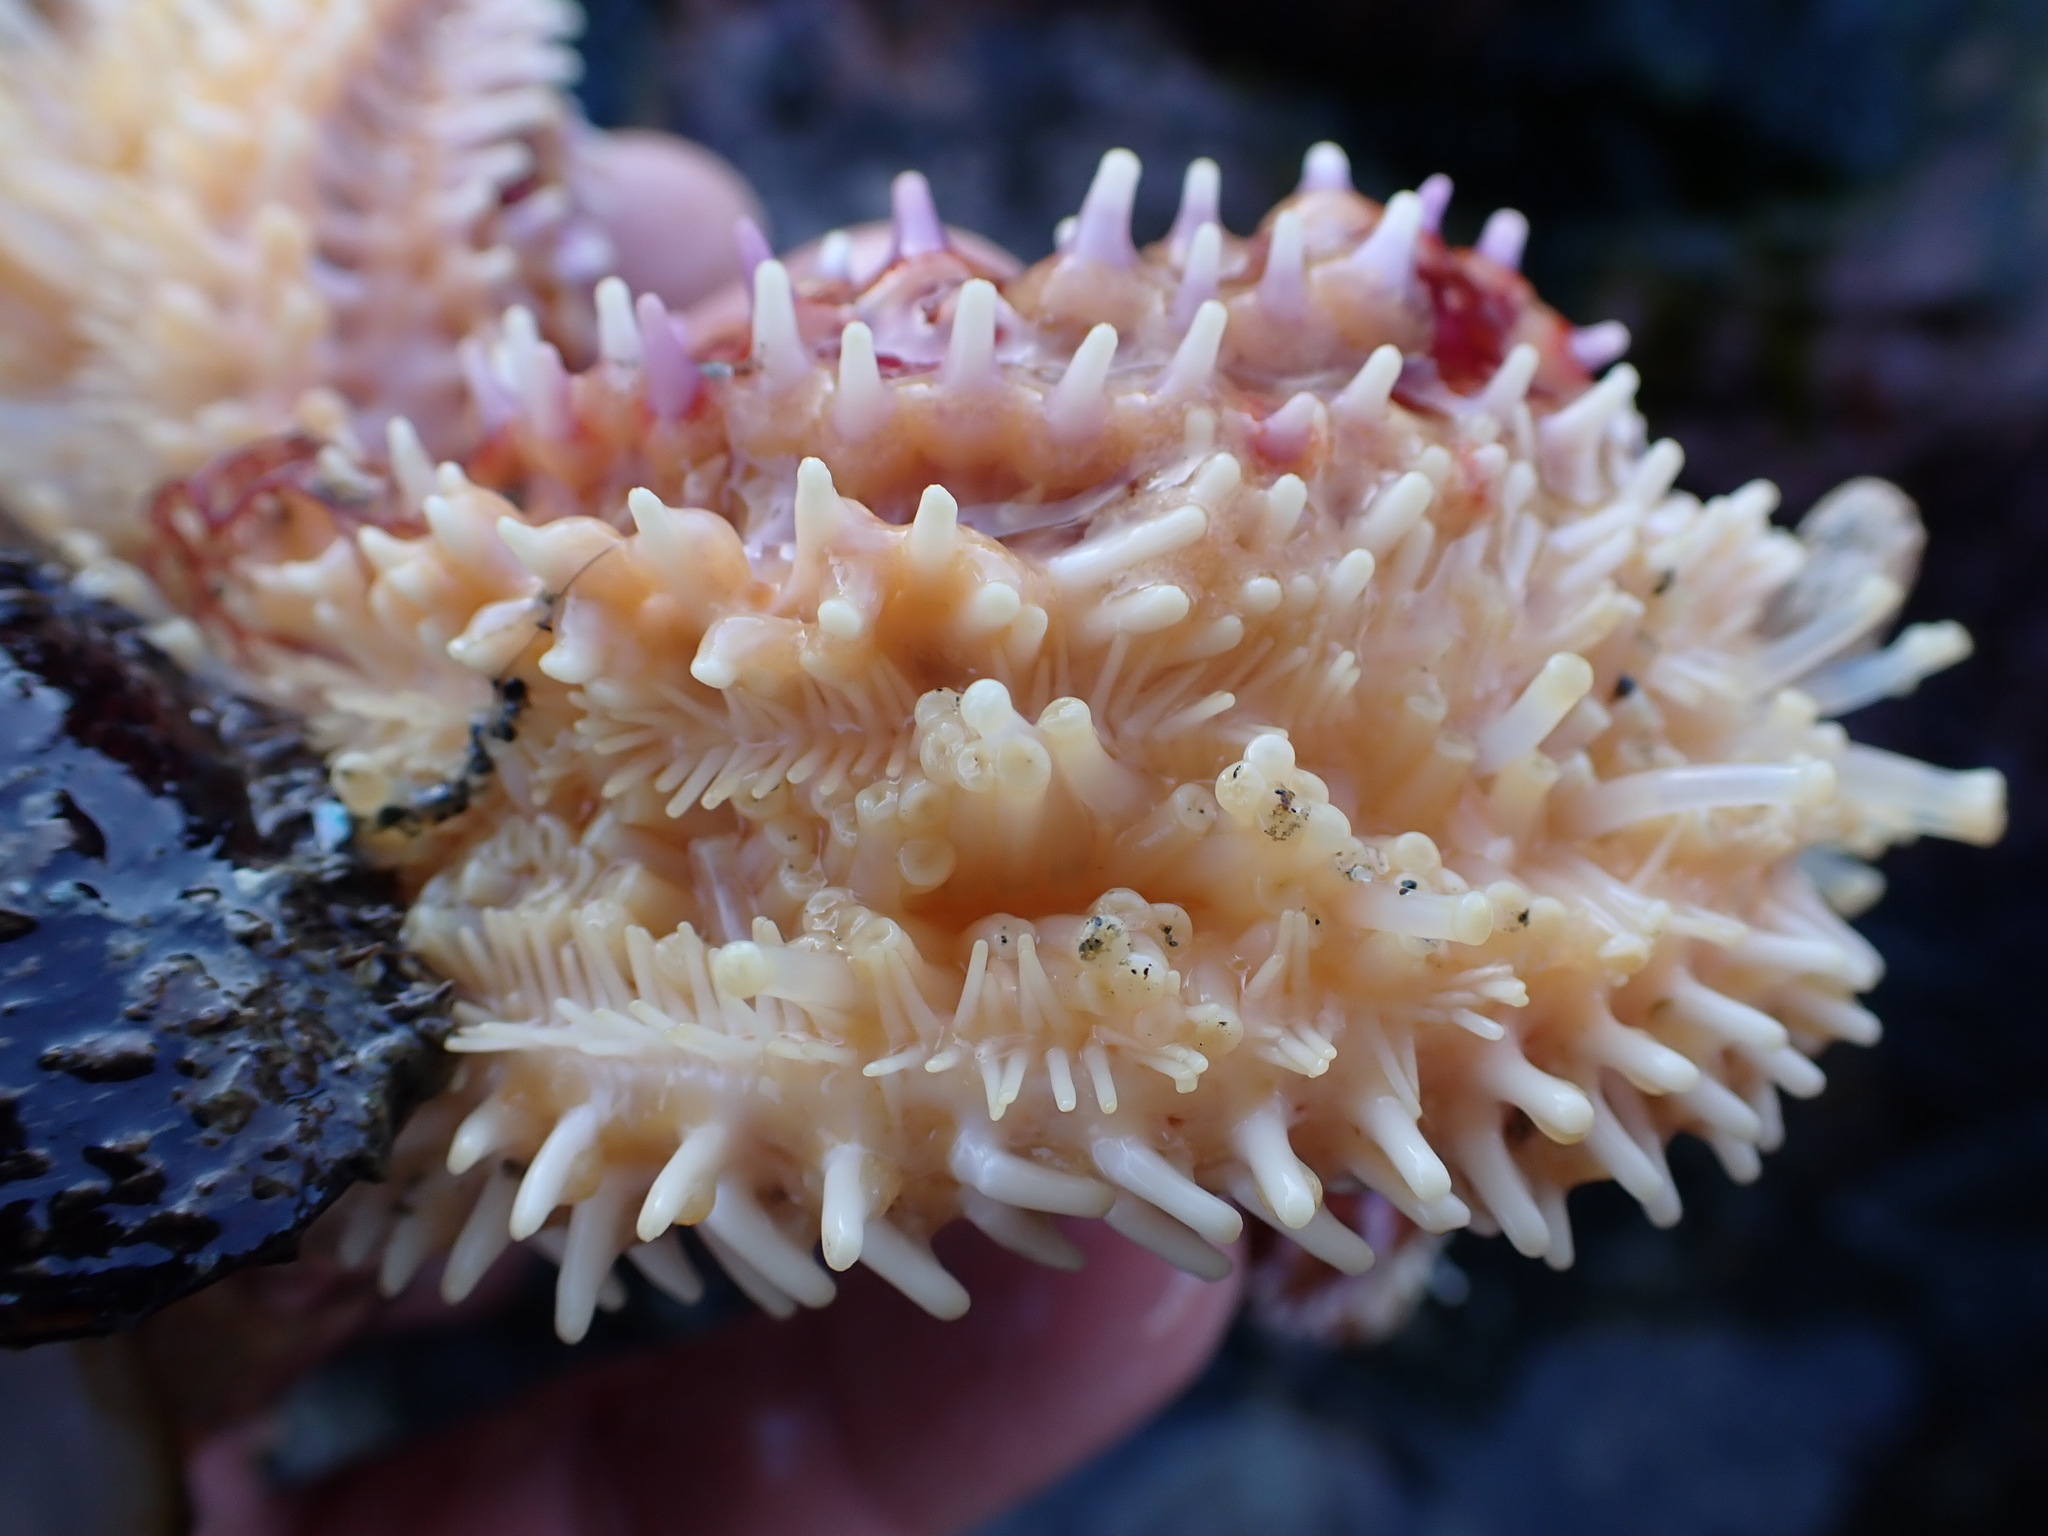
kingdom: Animalia
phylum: Echinodermata
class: Asteroidea
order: Forcipulatida
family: Asteriidae
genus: Orthasterias
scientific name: Orthasterias koehleri
